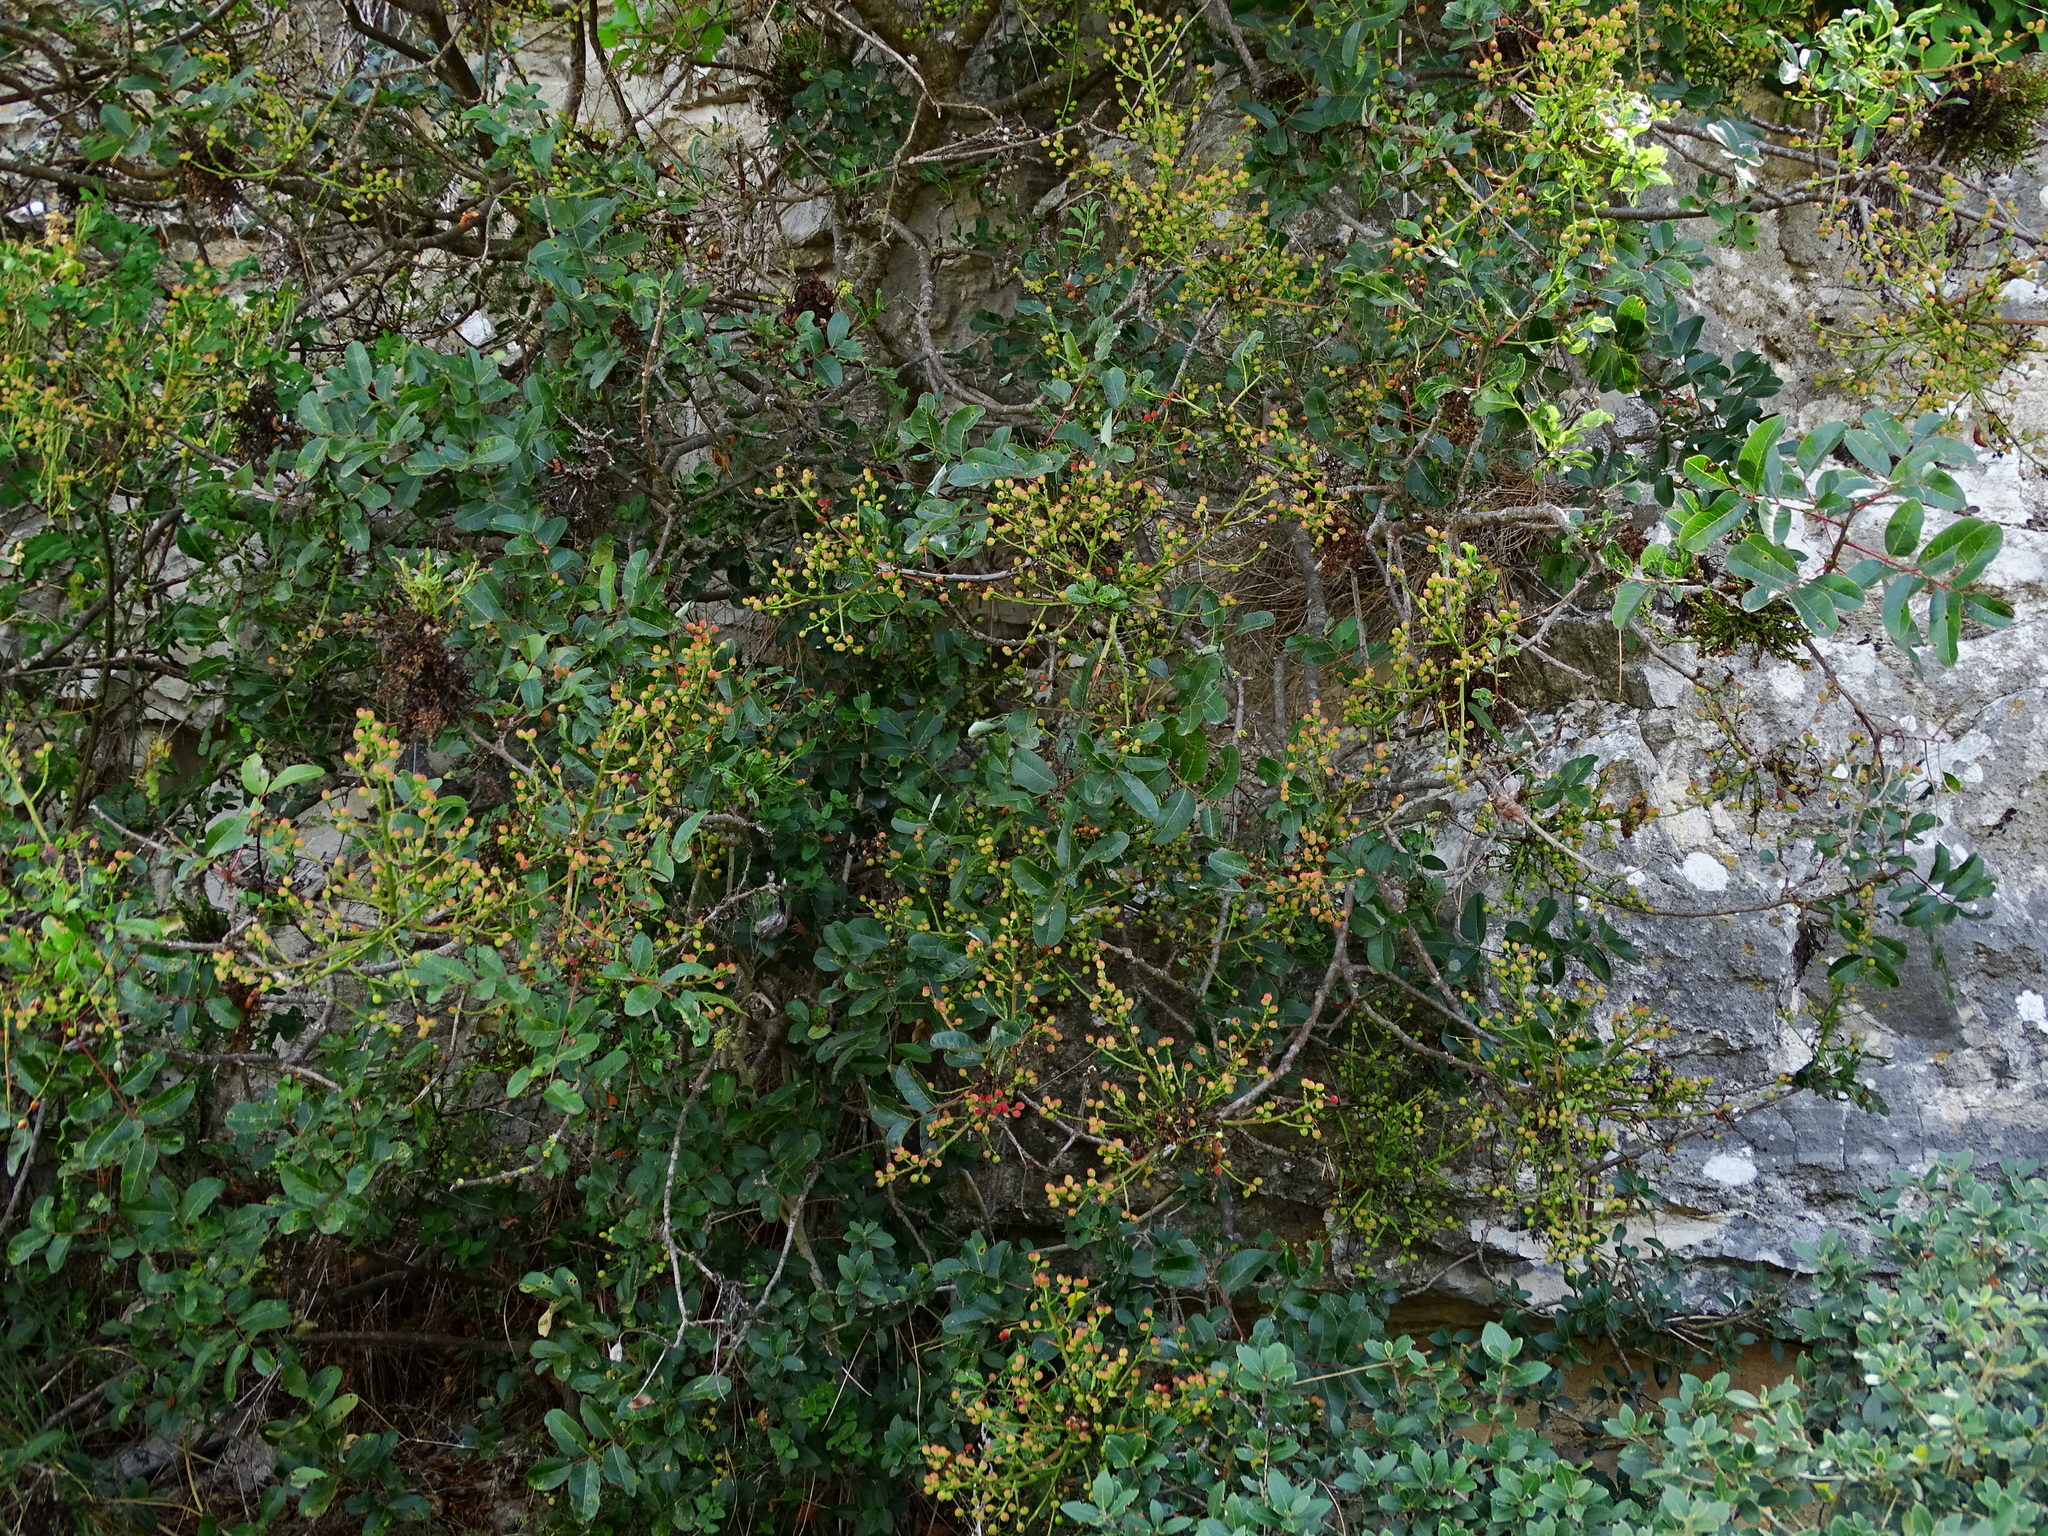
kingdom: Plantae
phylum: Tracheophyta
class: Magnoliopsida
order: Sapindales
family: Anacardiaceae
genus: Pistacia
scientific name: Pistacia terebinthus
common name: Terebinth
